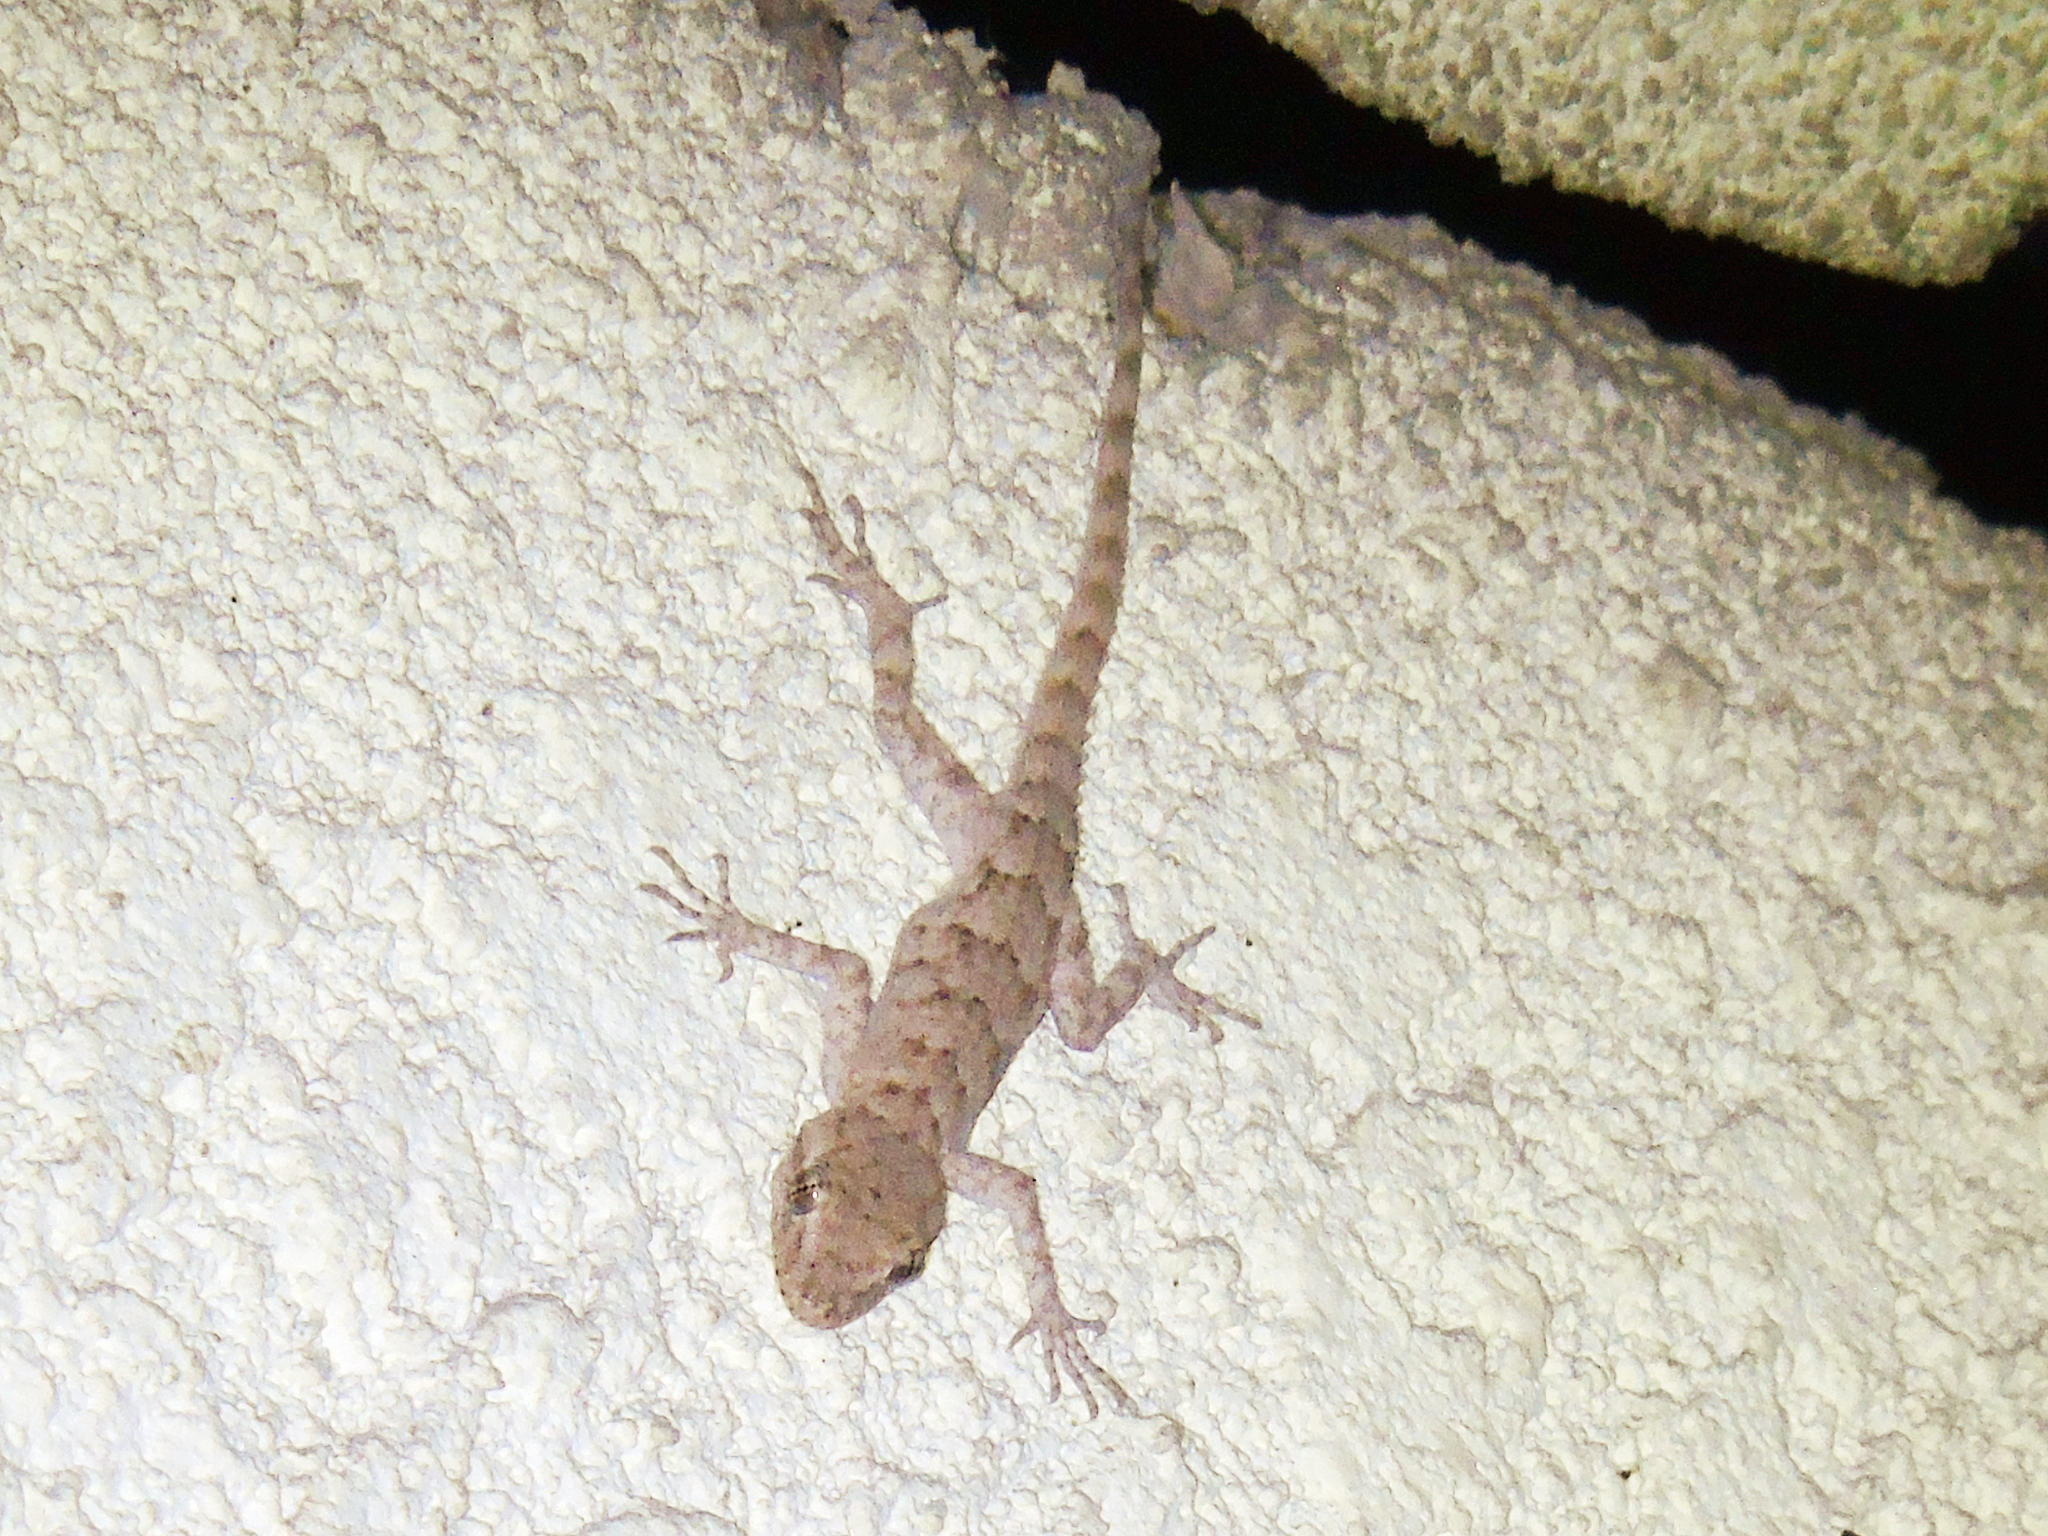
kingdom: Animalia
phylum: Chordata
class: Squamata
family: Gekkonidae
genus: Mediodactylus
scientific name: Mediodactylus russowii
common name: Grey thin-toed gecko
